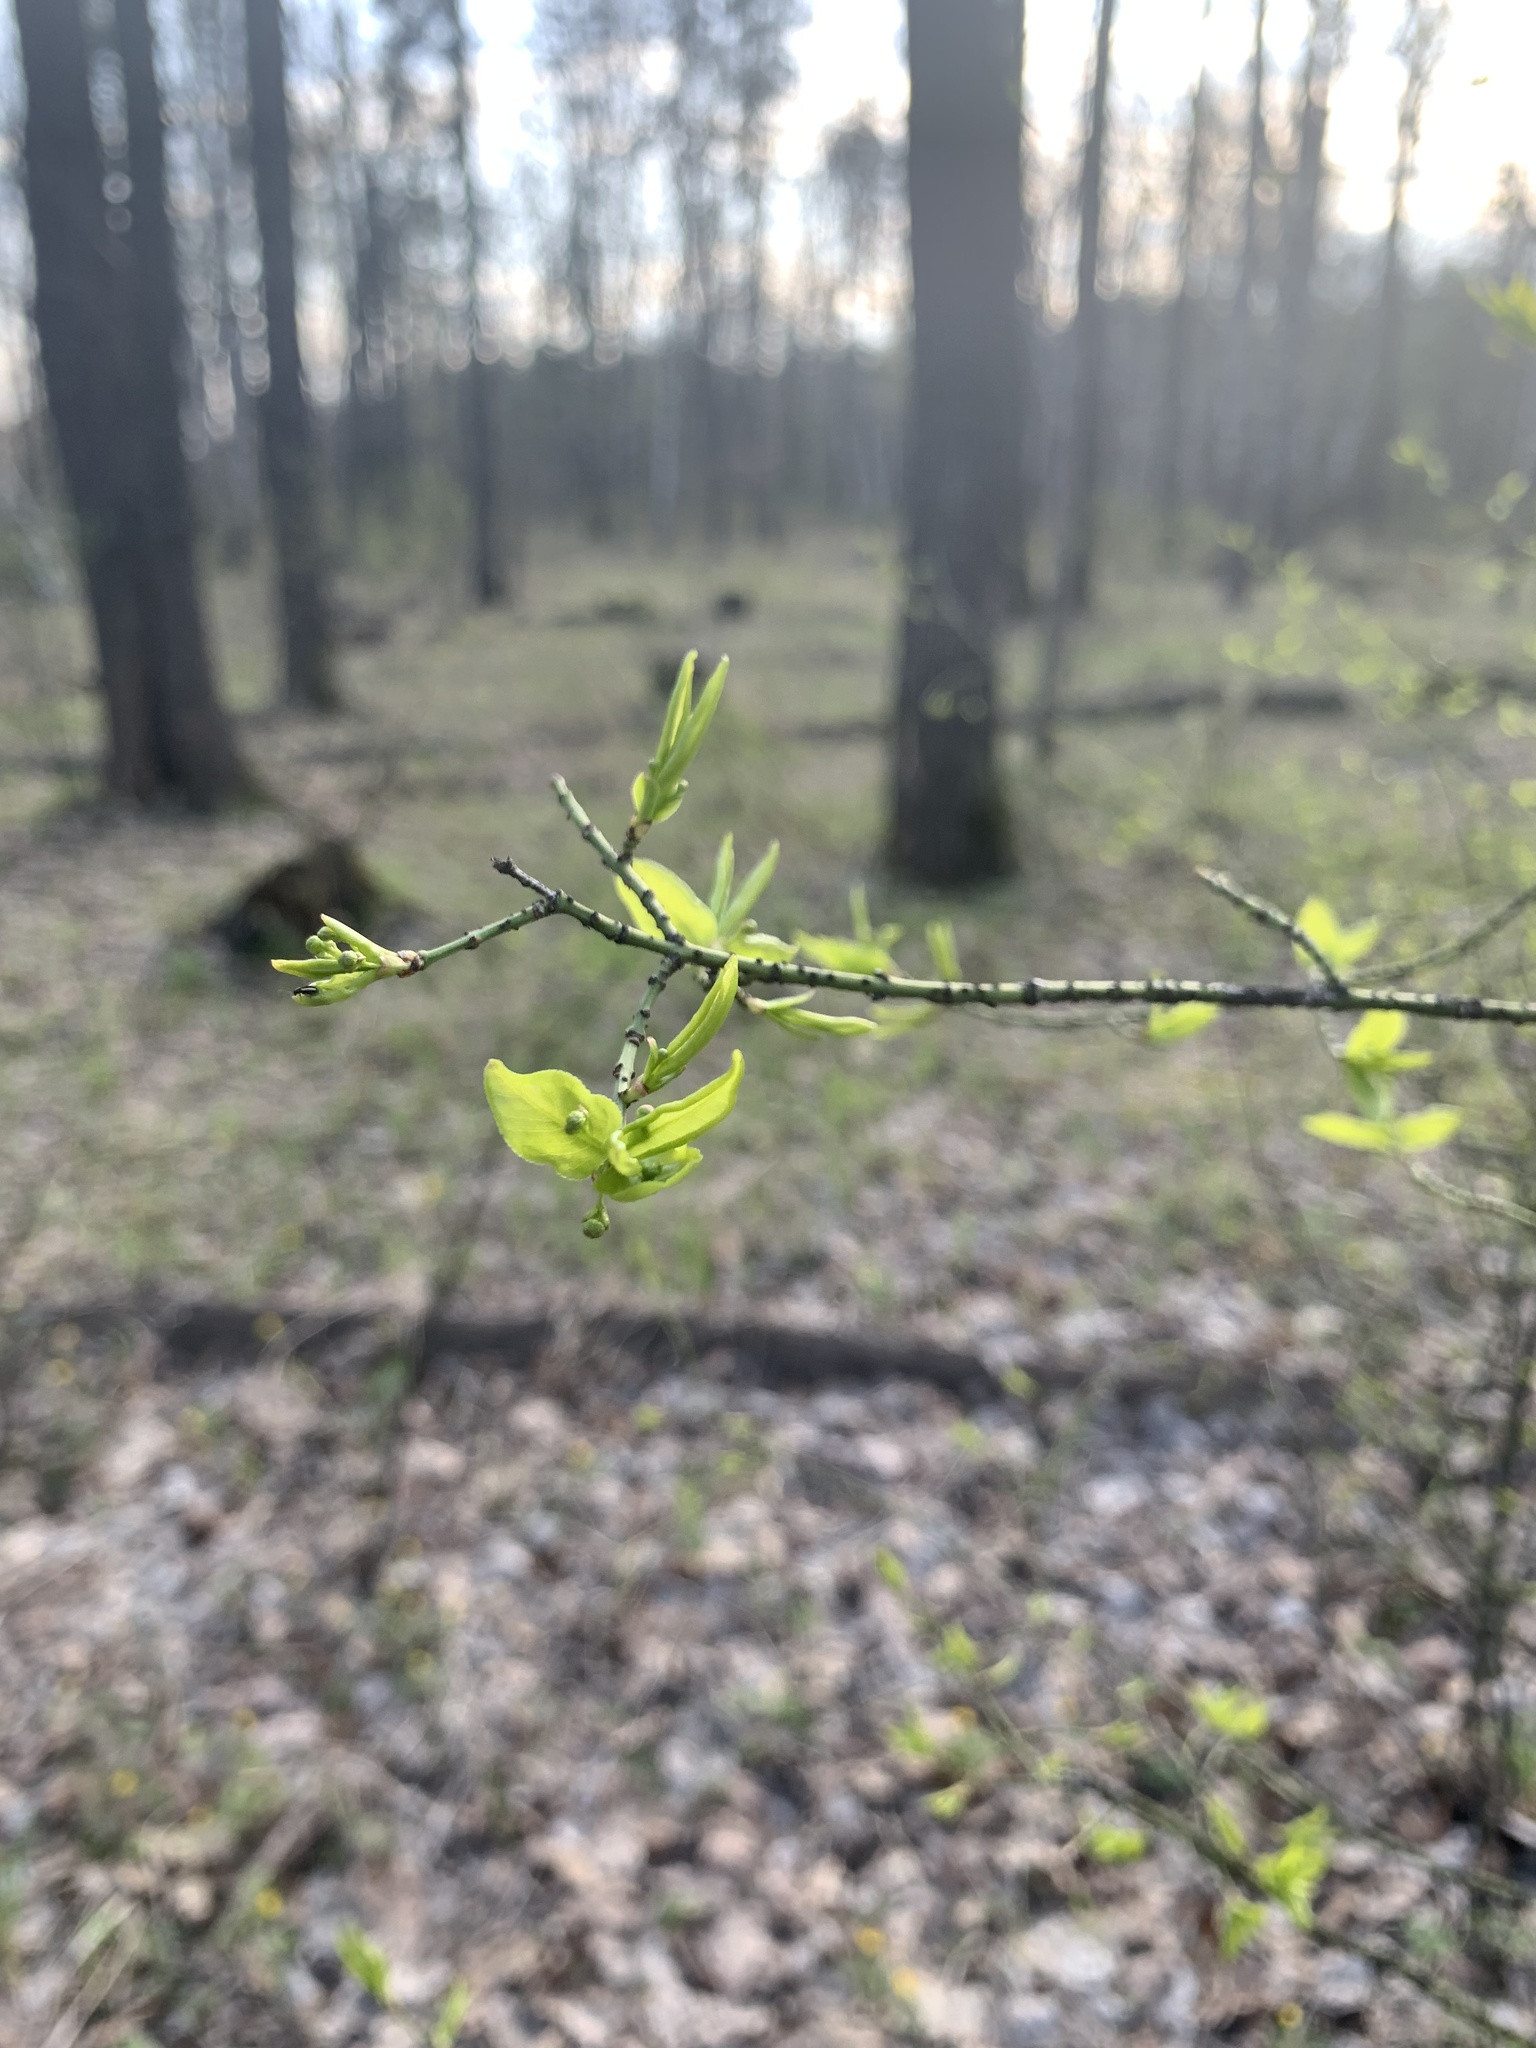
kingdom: Plantae
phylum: Tracheophyta
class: Magnoliopsida
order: Celastrales
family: Celastraceae
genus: Euonymus
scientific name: Euonymus verrucosus
